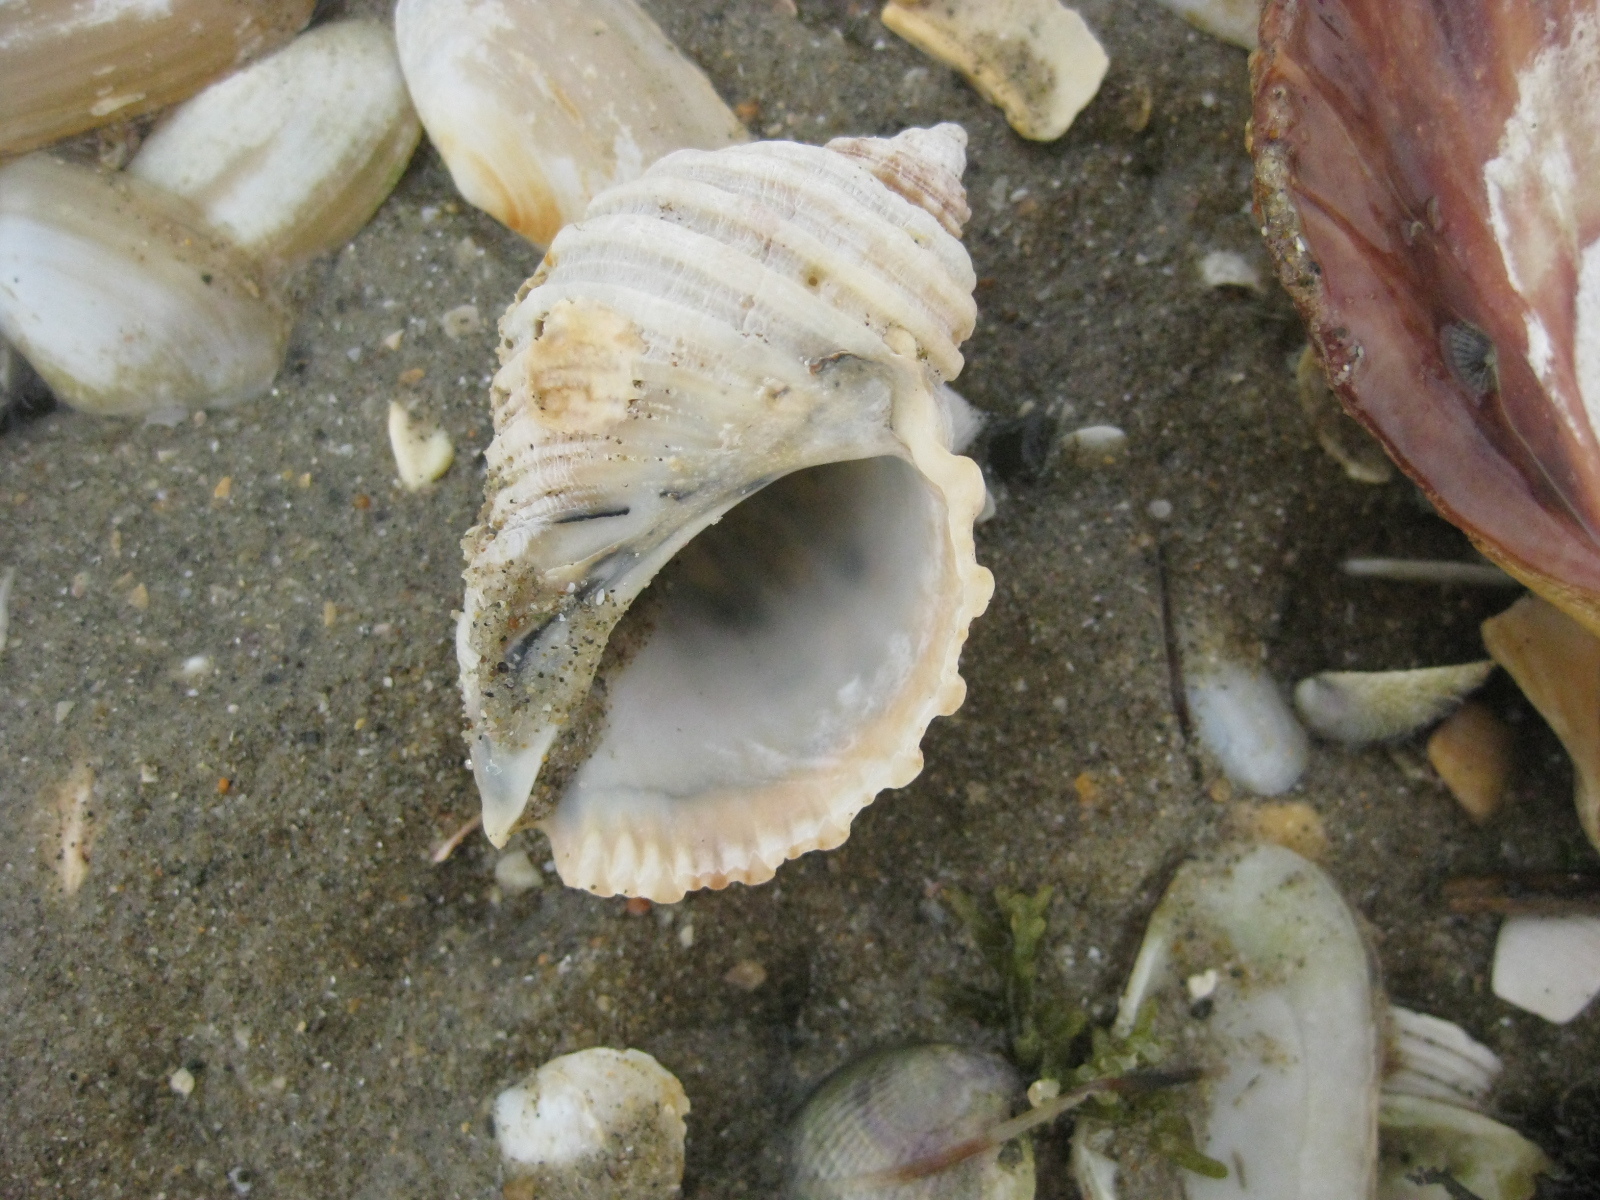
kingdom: Animalia
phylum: Mollusca
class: Gastropoda
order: Neogastropoda
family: Muricidae
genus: Dicathais
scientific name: Dicathais orbita
